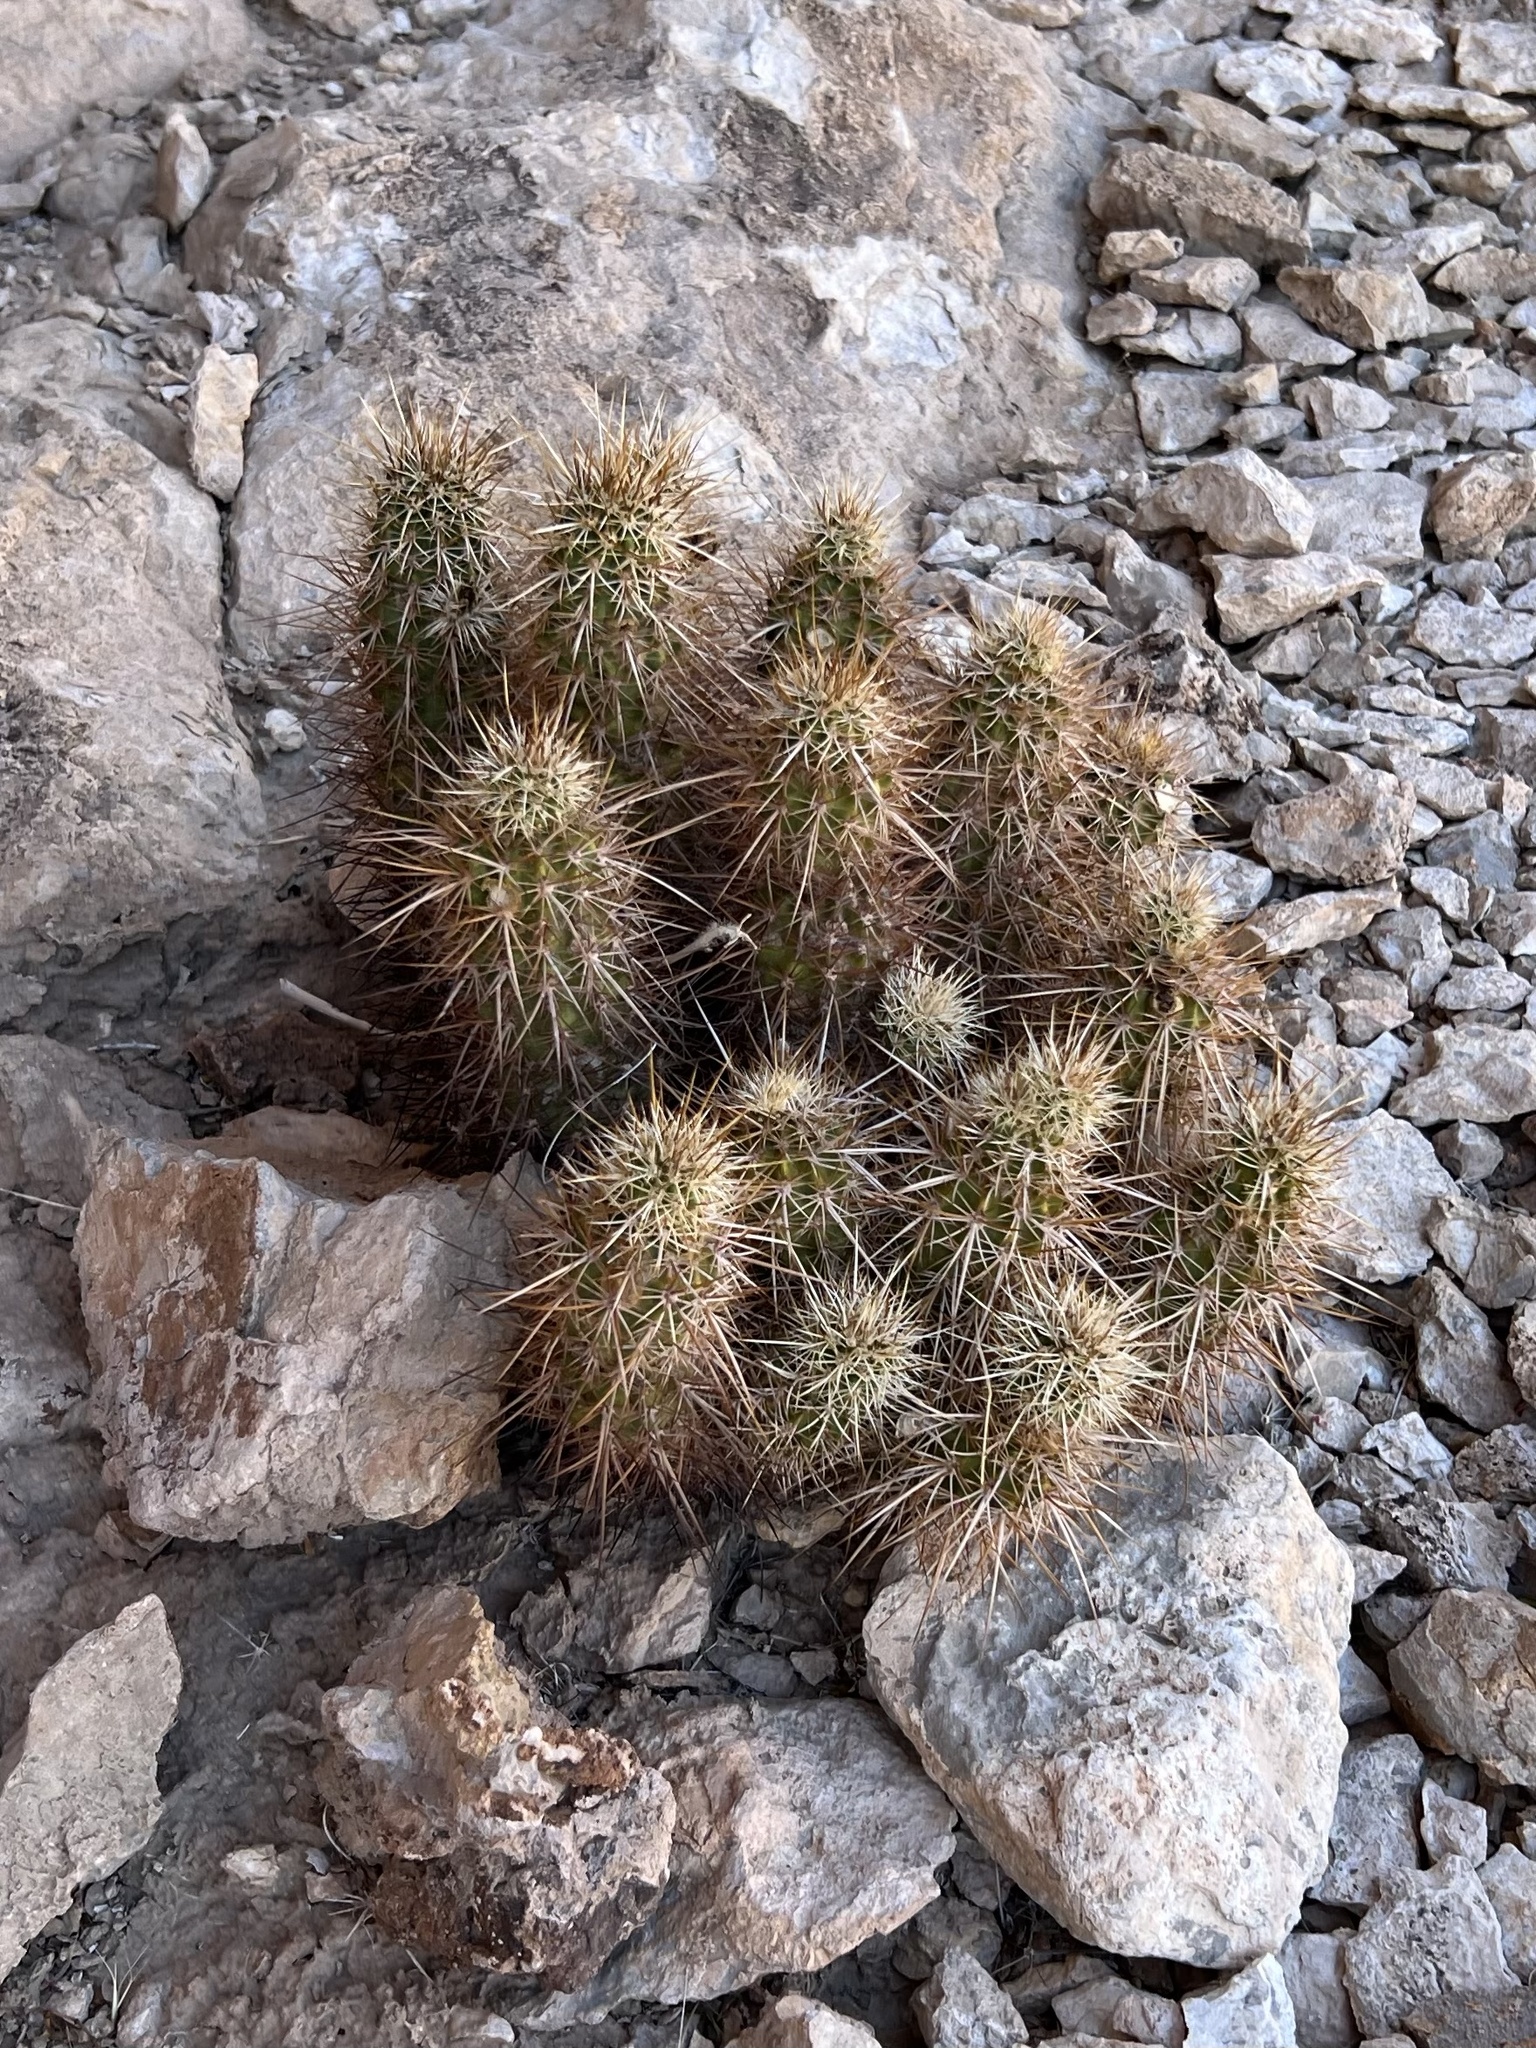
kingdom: Plantae
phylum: Tracheophyta
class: Magnoliopsida
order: Caryophyllales
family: Cactaceae
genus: Echinocereus
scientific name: Echinocereus engelmannii
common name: Engelmann's hedgehog cactus
